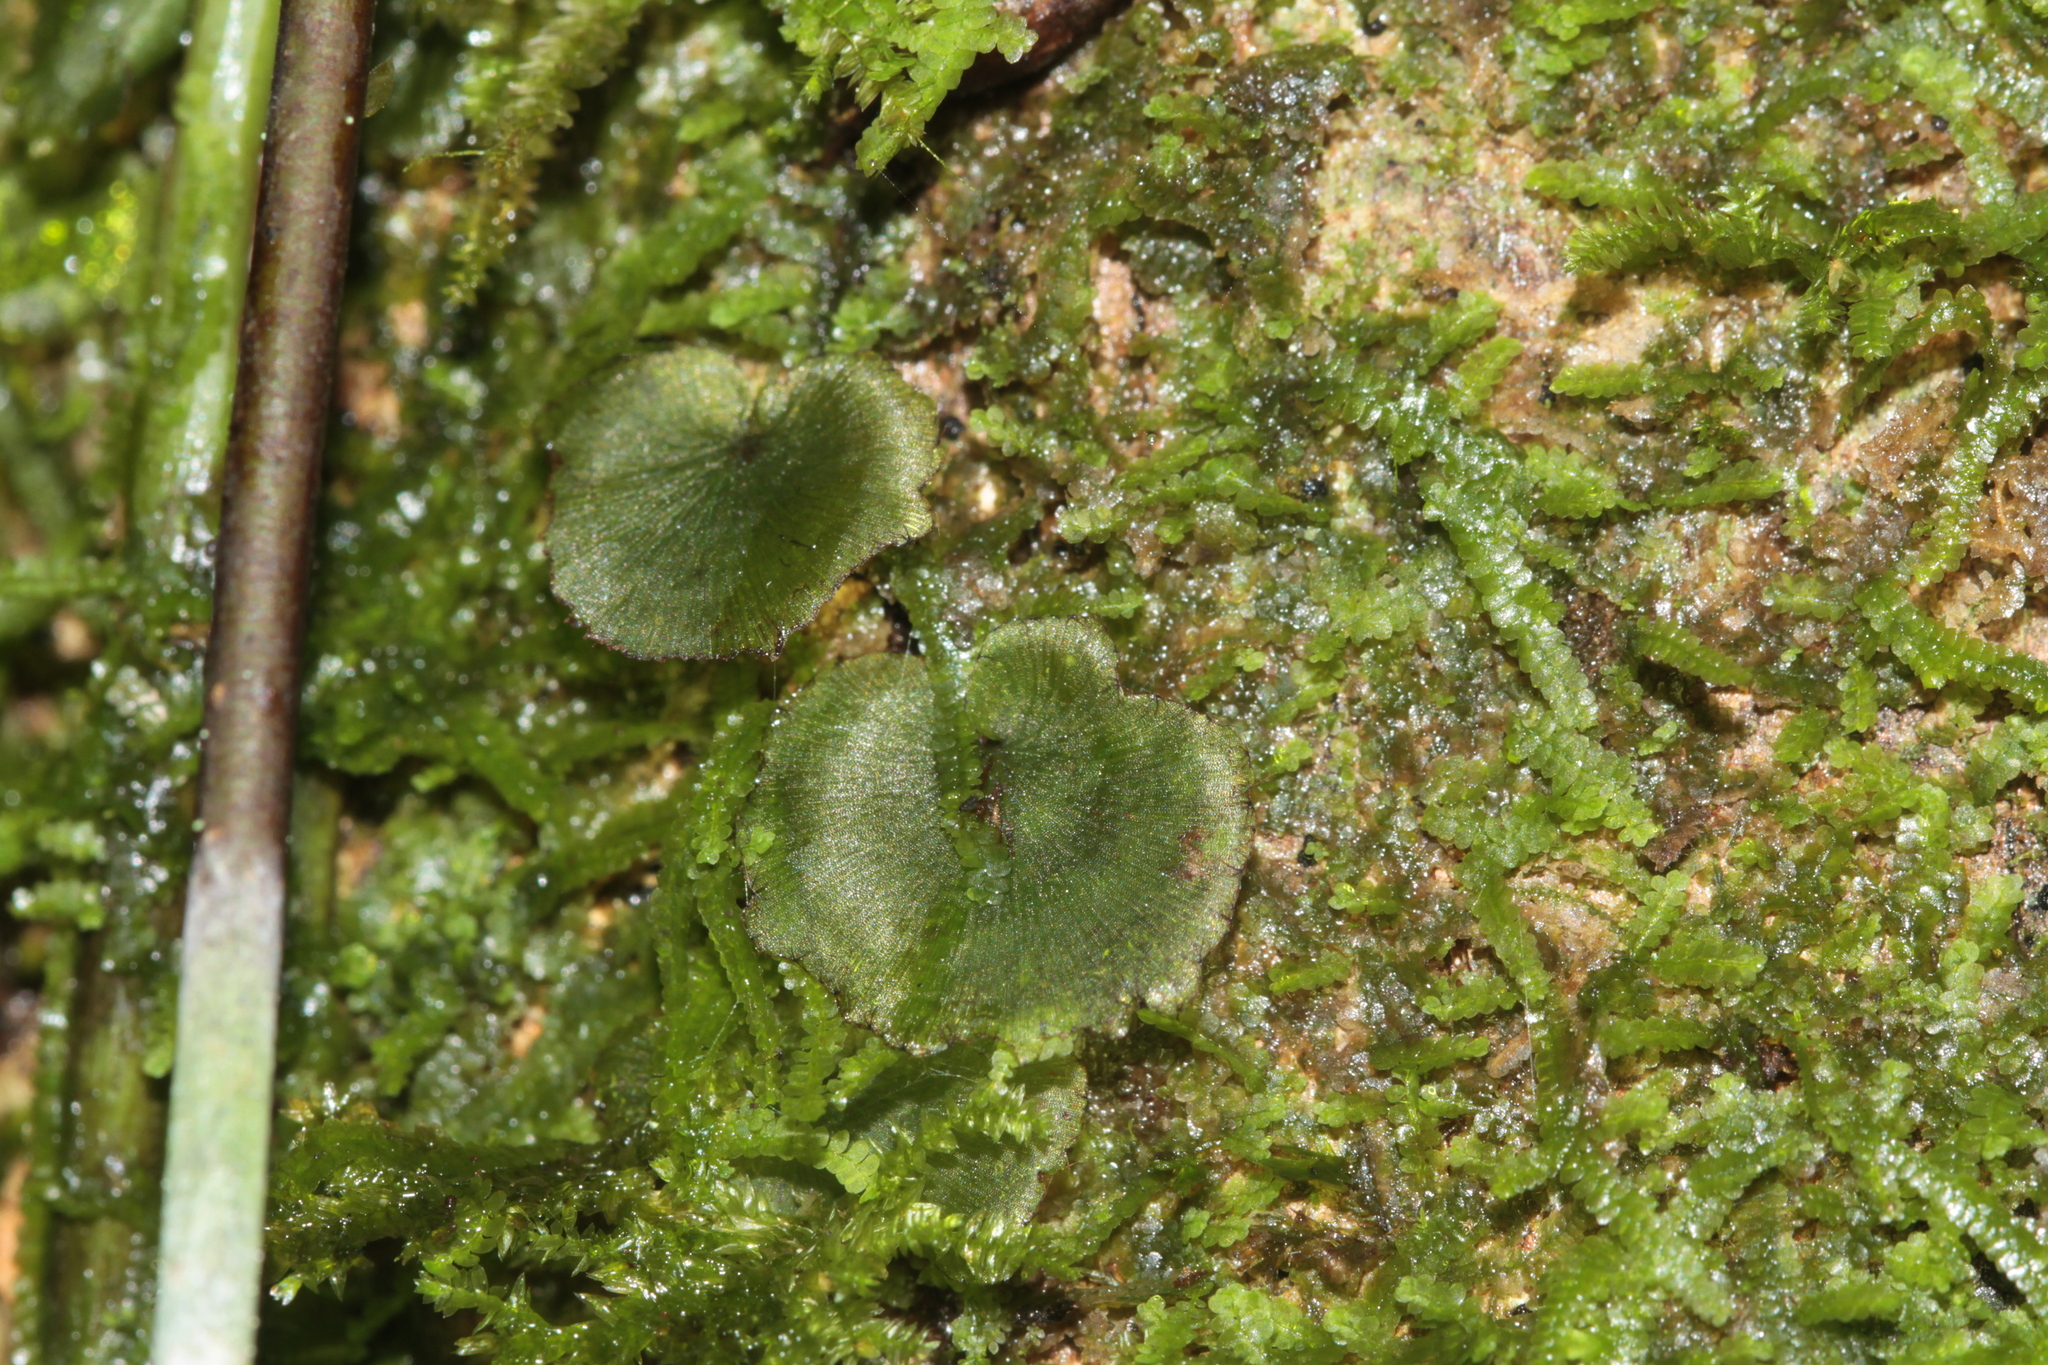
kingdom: Plantae
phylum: Tracheophyta
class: Polypodiopsida
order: Hymenophyllales
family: Hymenophyllaceae
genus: Didymoglossum
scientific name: Didymoglossum punctatum
